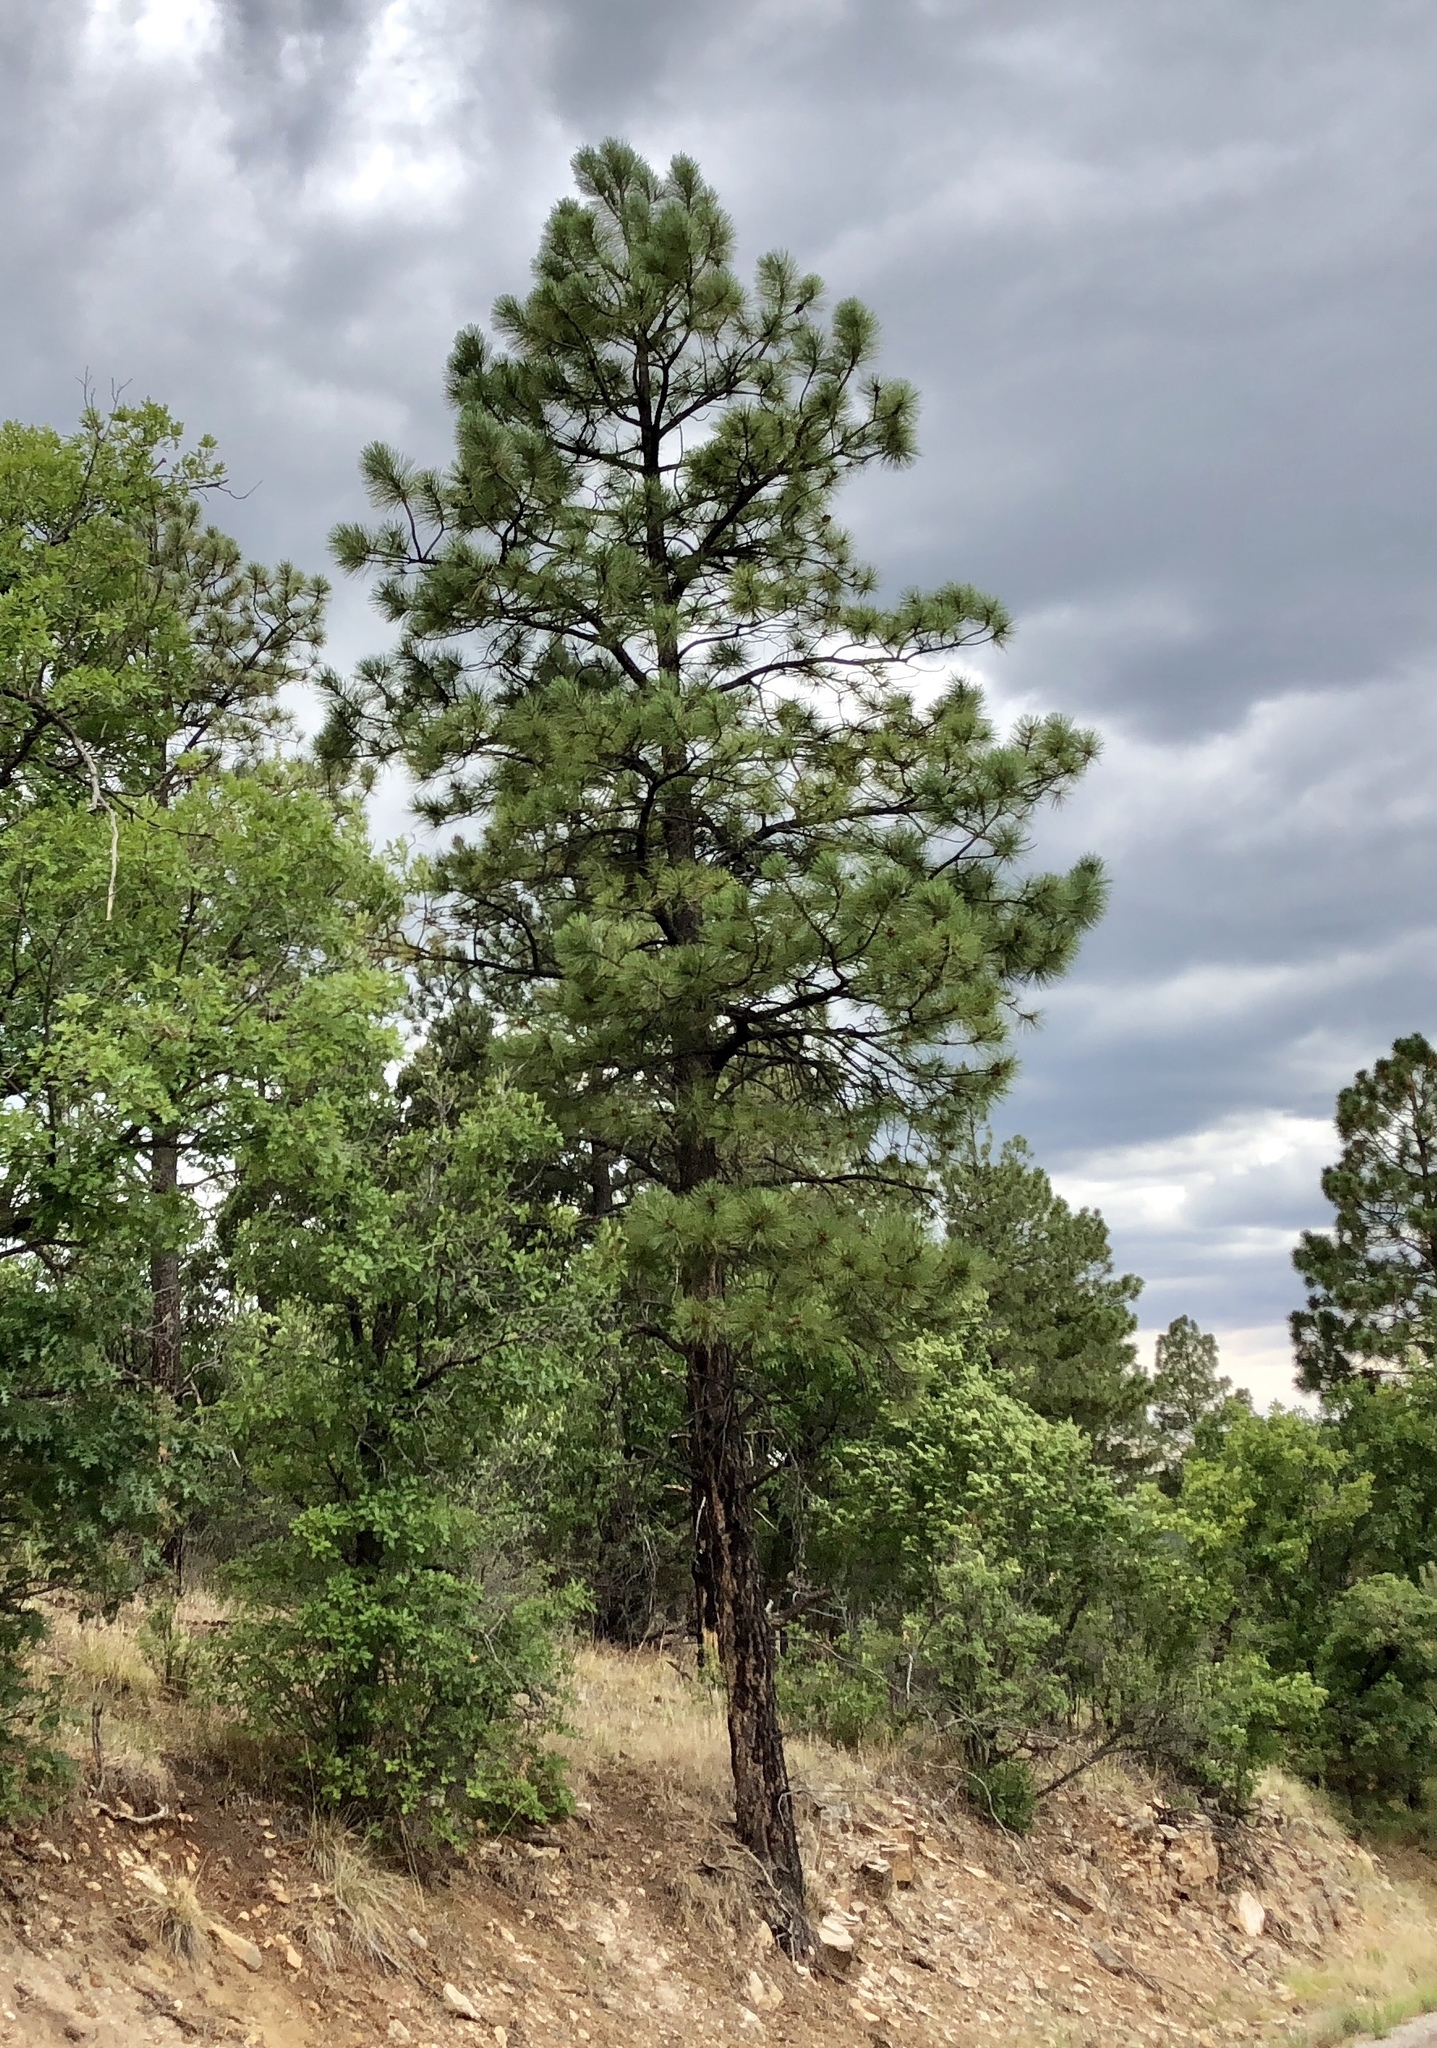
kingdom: Plantae
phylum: Tracheophyta
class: Pinopsida
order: Pinales
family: Pinaceae
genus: Pinus
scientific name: Pinus ponderosa
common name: Western yellow-pine
